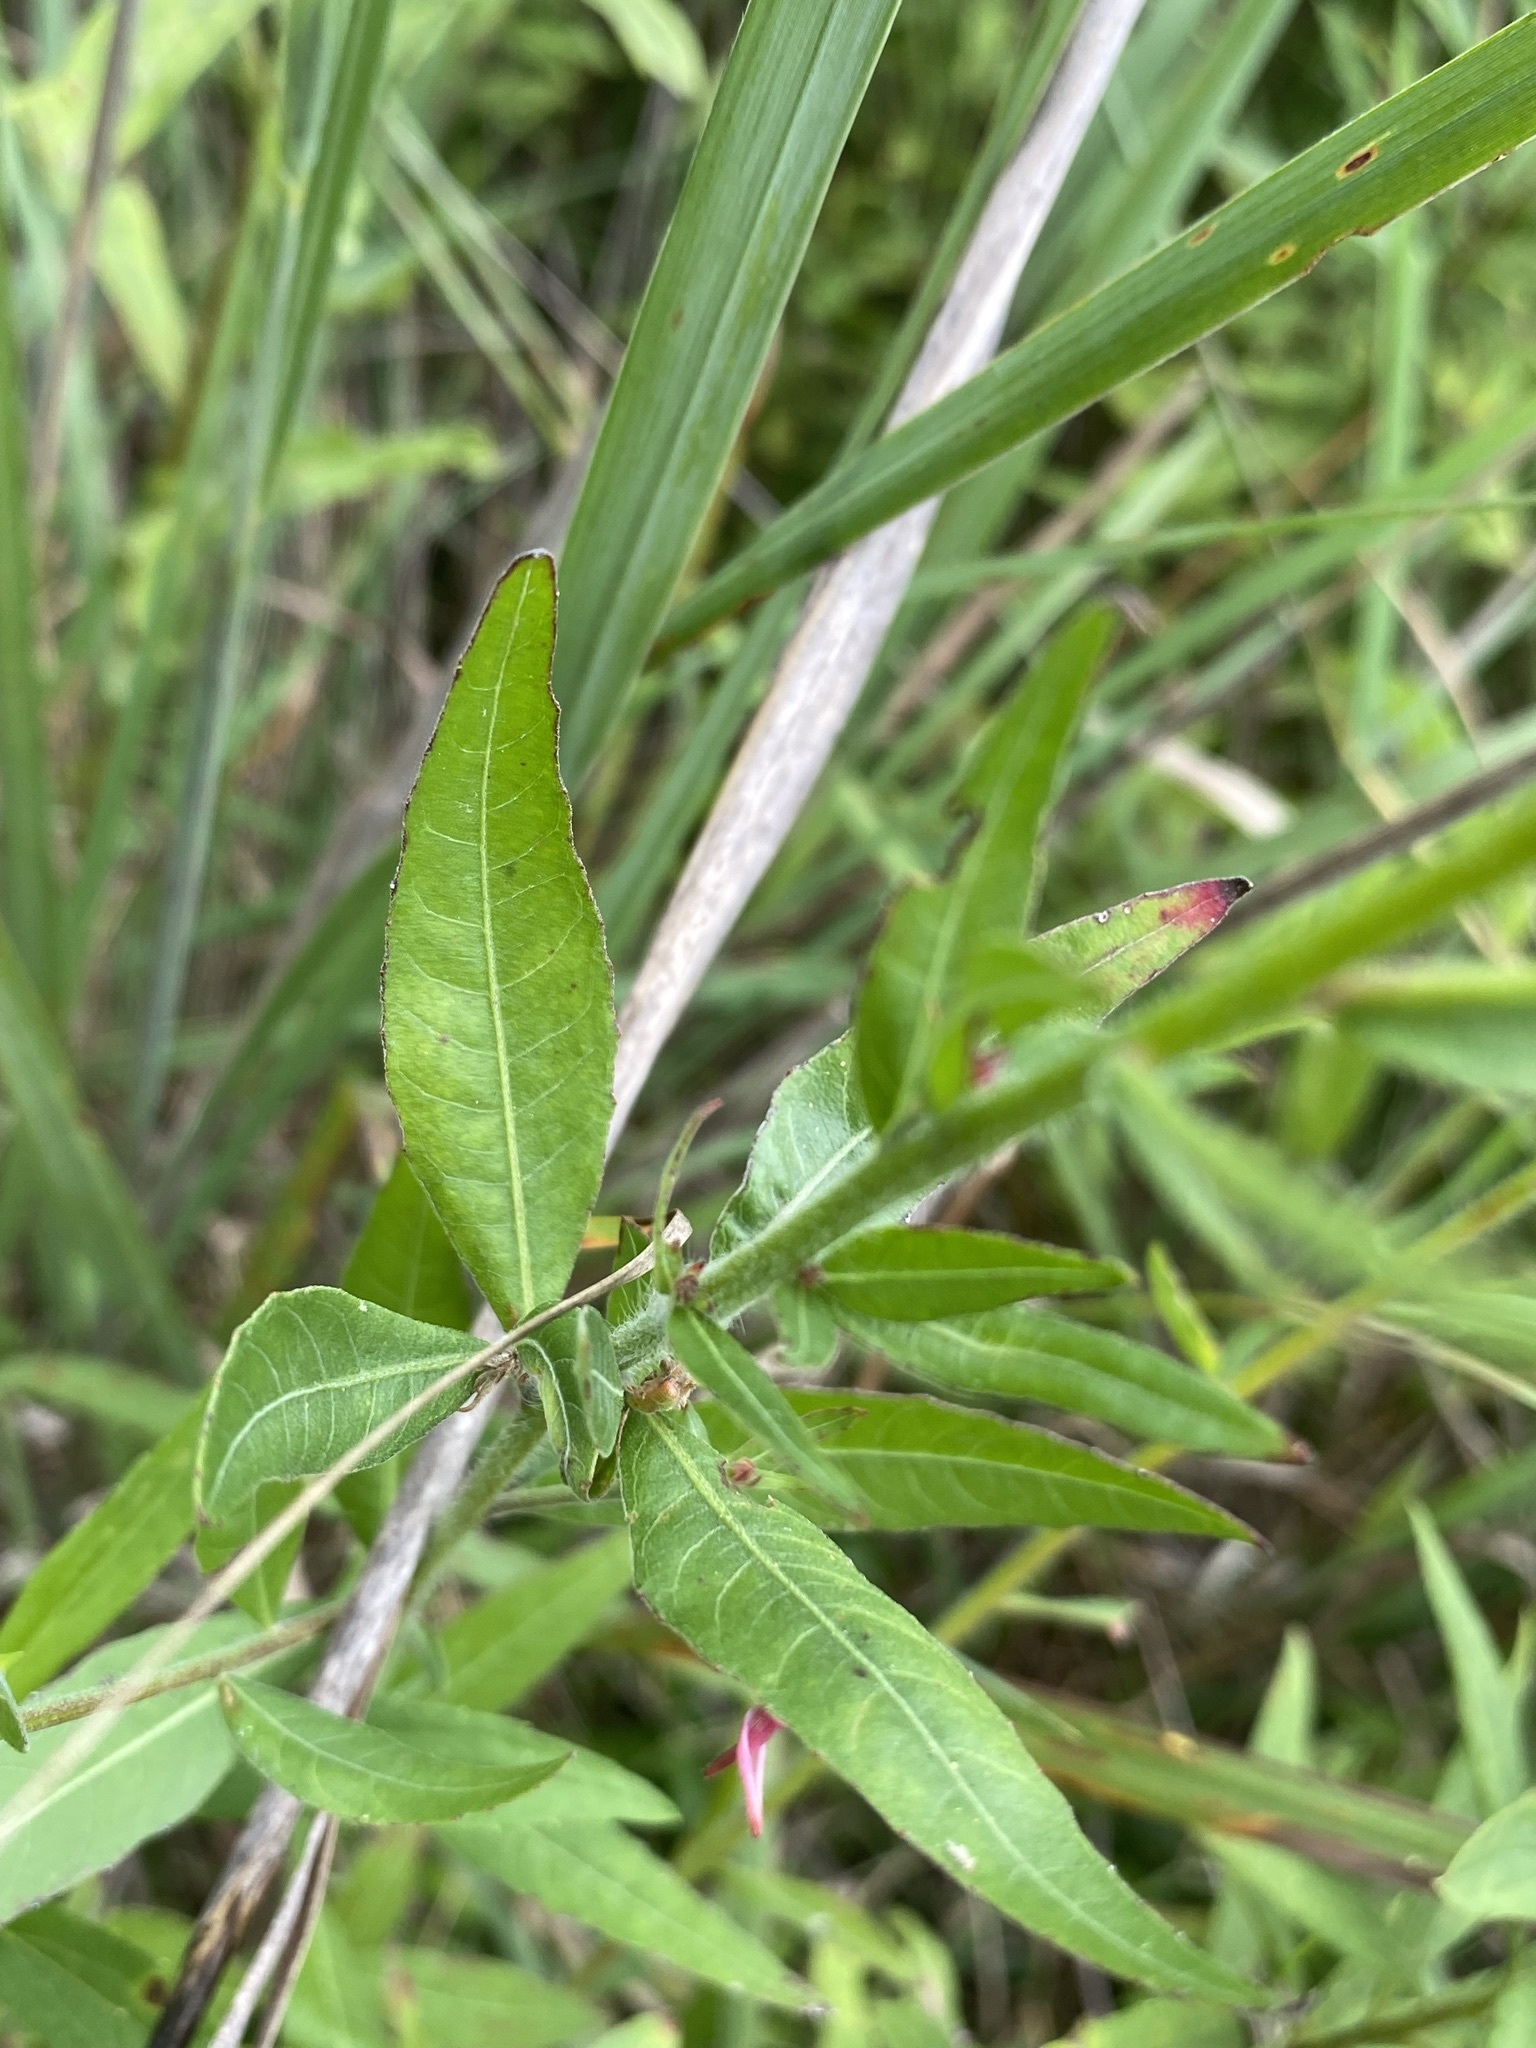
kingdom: Plantae
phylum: Tracheophyta
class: Magnoliopsida
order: Myrtales
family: Onagraceae
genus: Oenothera
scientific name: Oenothera gaura
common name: Biennial beeblossom
